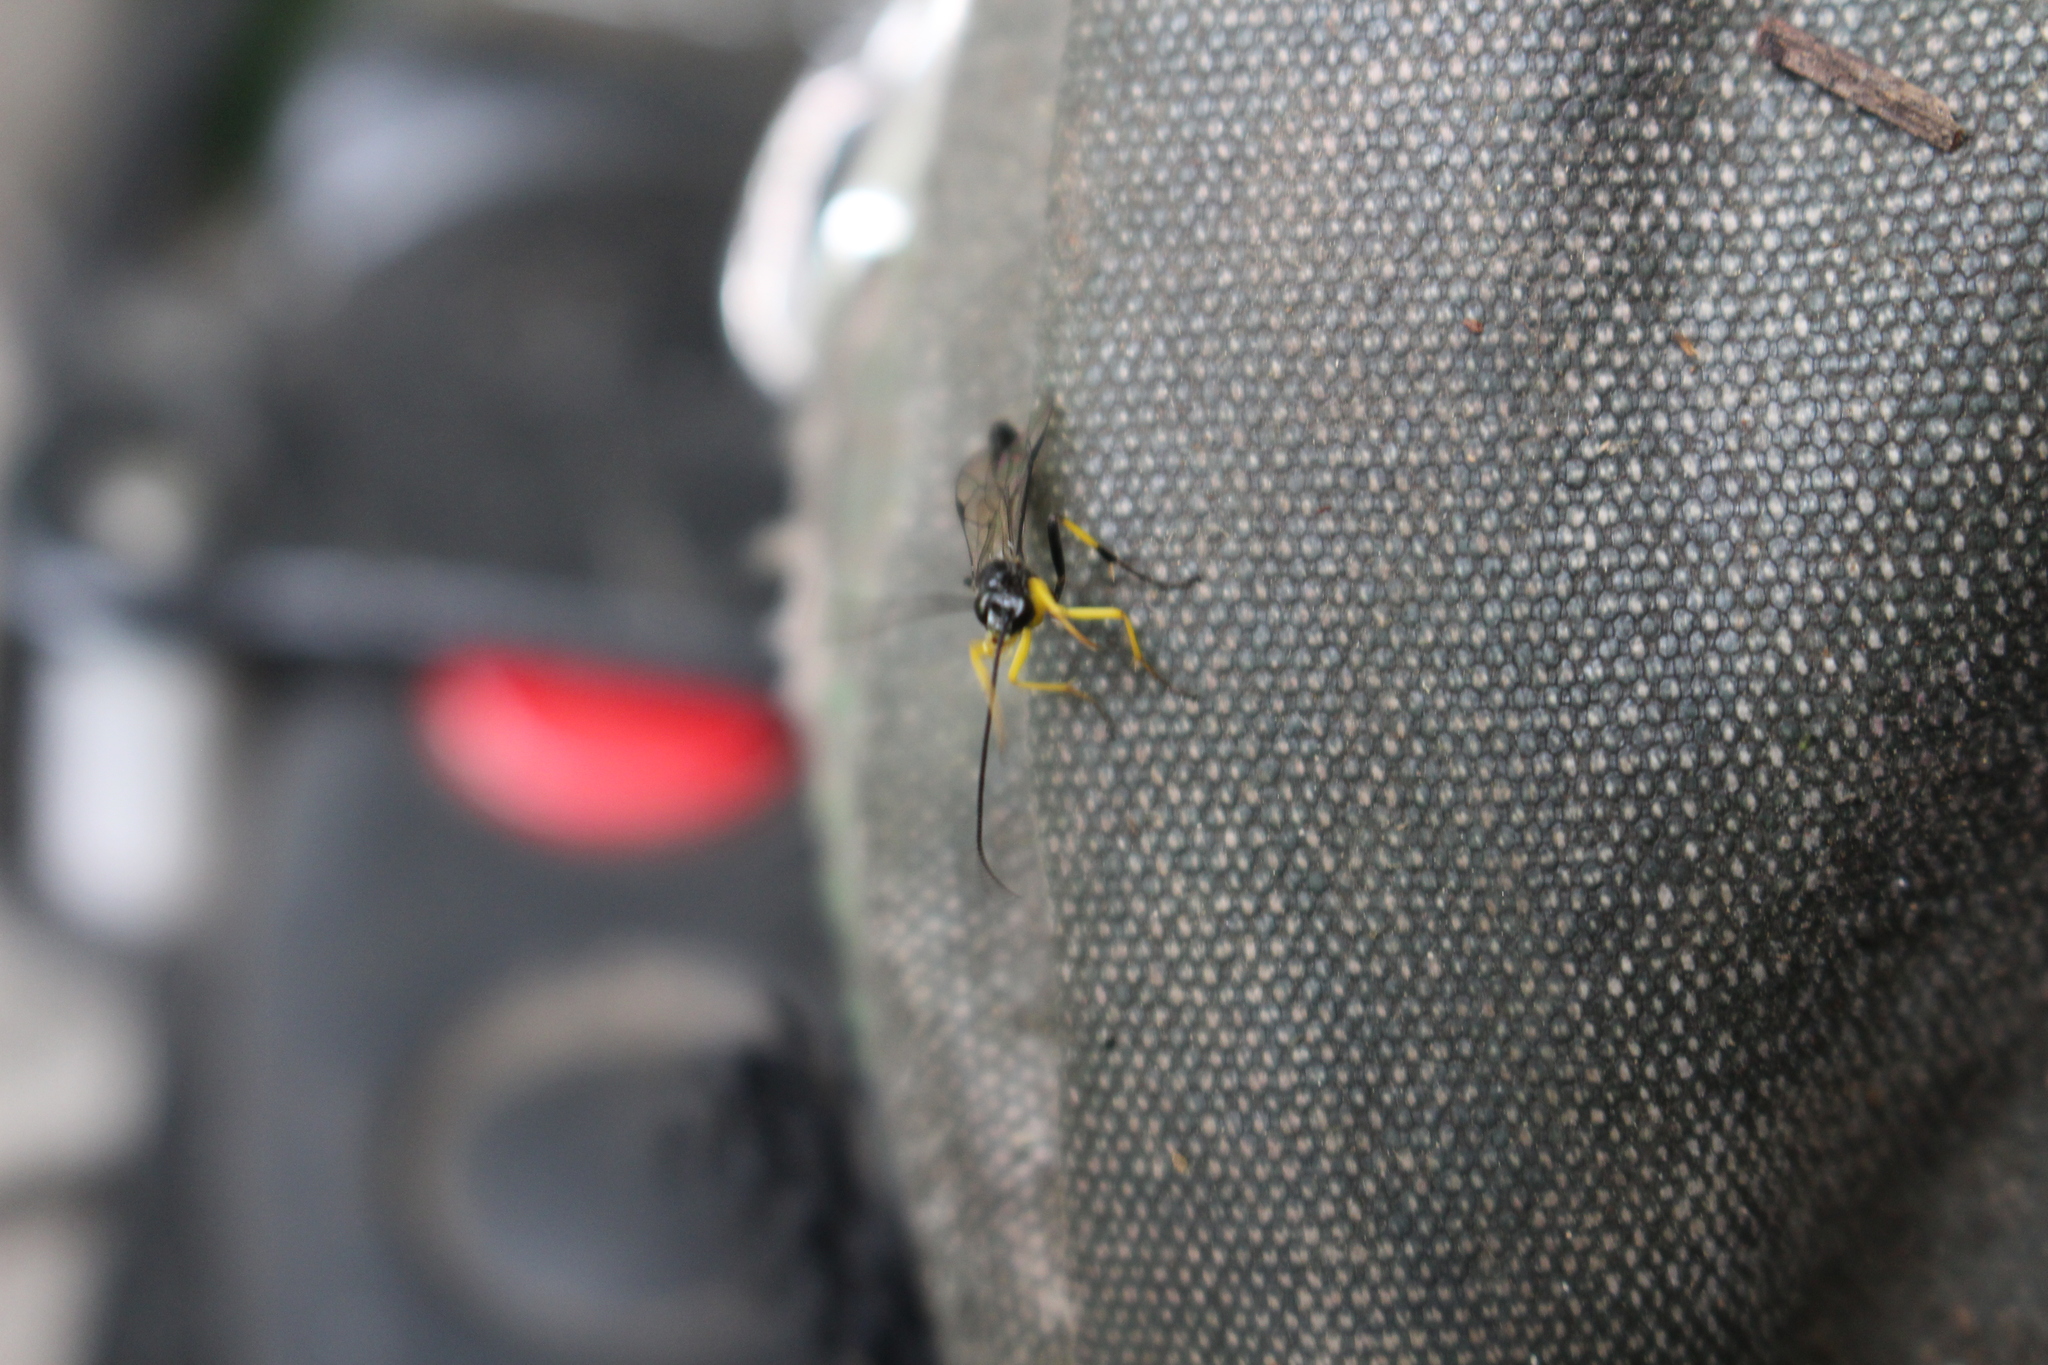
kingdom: Animalia
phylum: Arthropoda
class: Insecta
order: Hymenoptera
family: Ichneumonidae
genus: Dusona
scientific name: Dusona stramineipes
